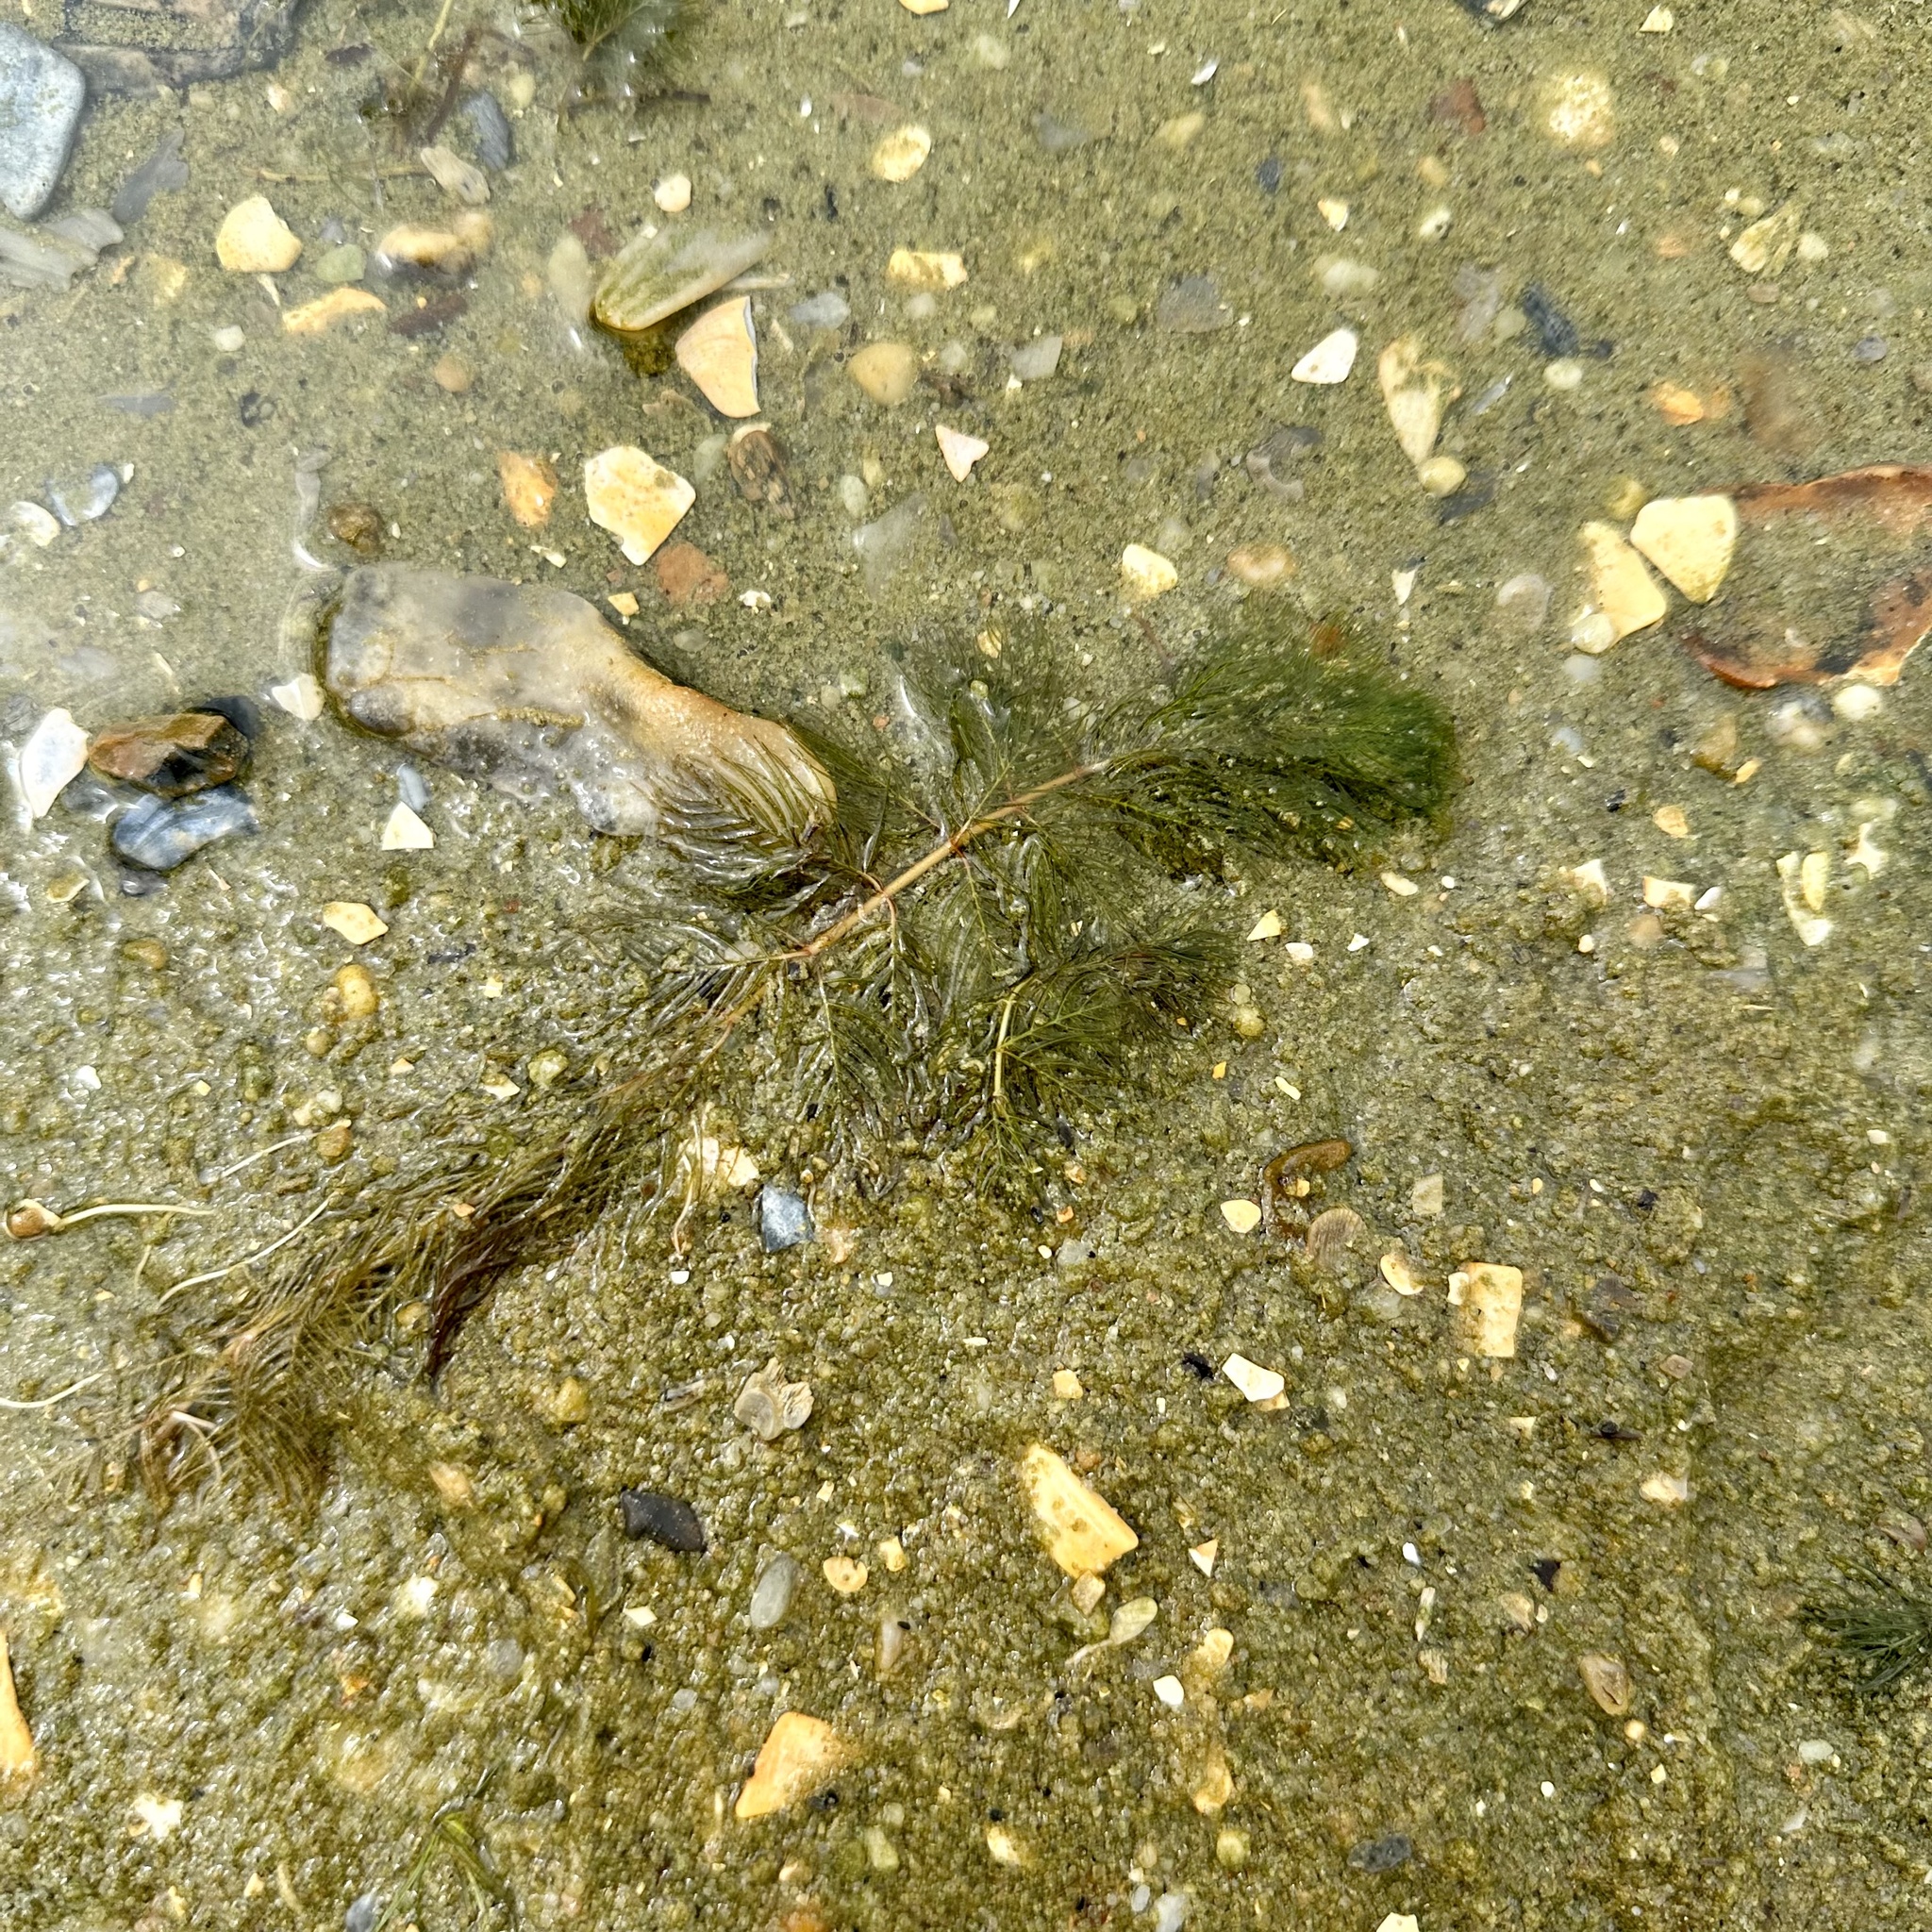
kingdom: Plantae
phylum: Tracheophyta
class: Magnoliopsida
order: Saxifragales
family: Haloragaceae
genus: Myriophyllum
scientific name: Myriophyllum spicatum
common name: Spiked water-milfoil
